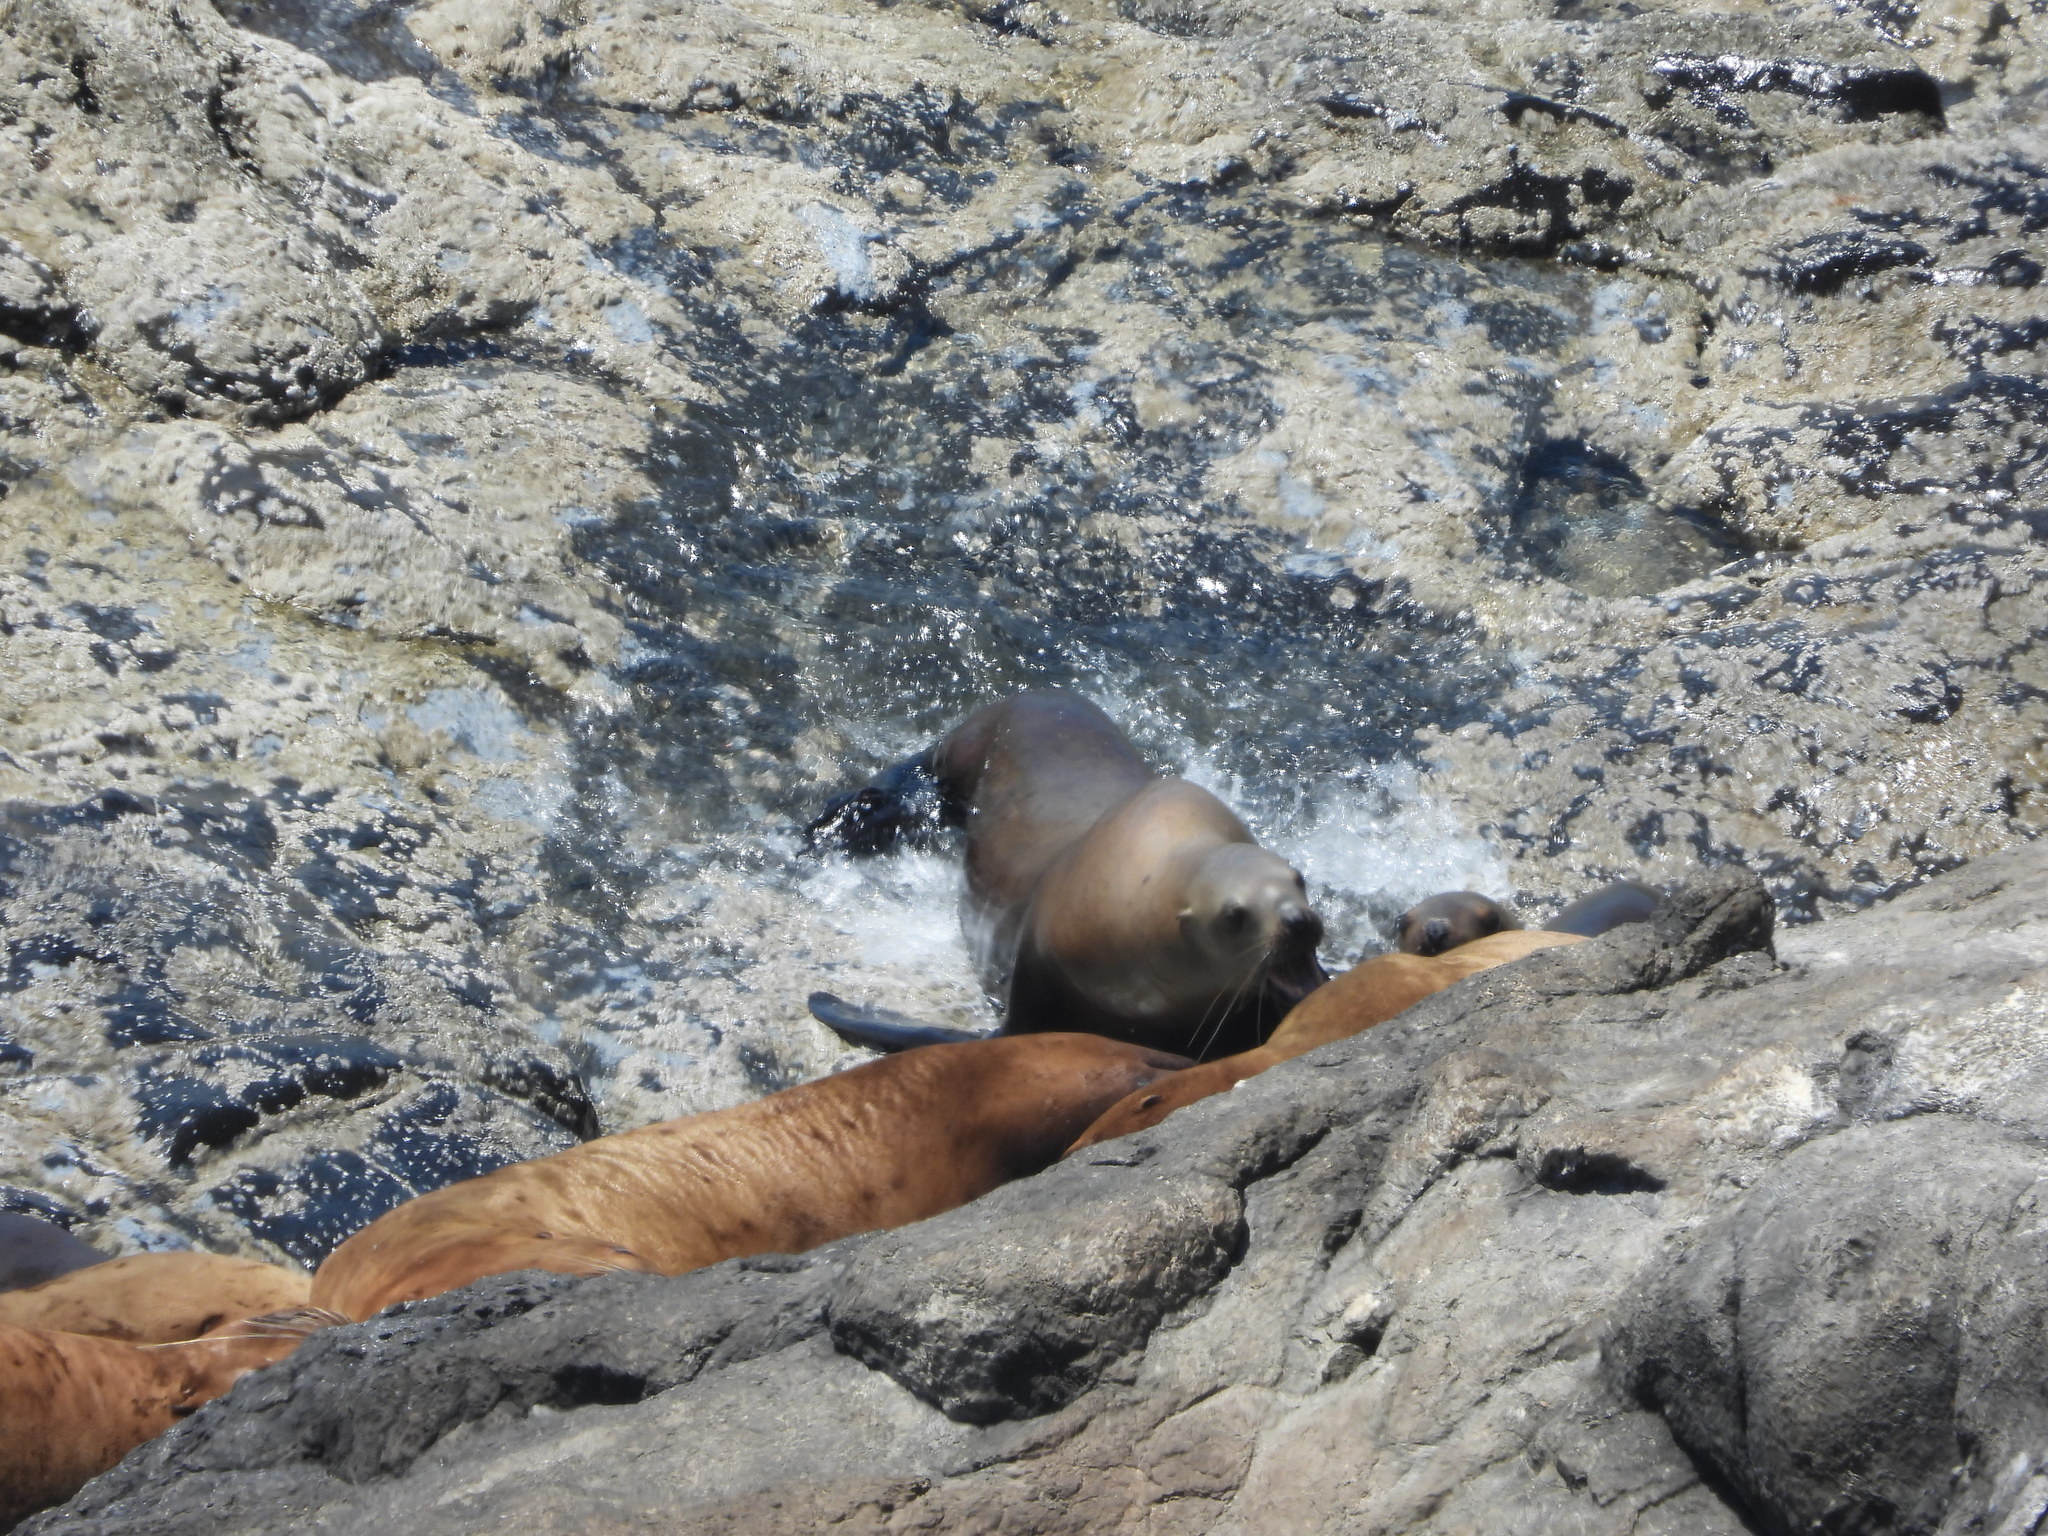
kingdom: Animalia
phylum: Chordata
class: Mammalia
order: Carnivora
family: Otariidae
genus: Eumetopias
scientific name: Eumetopias jubatus
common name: Steller sea lion
